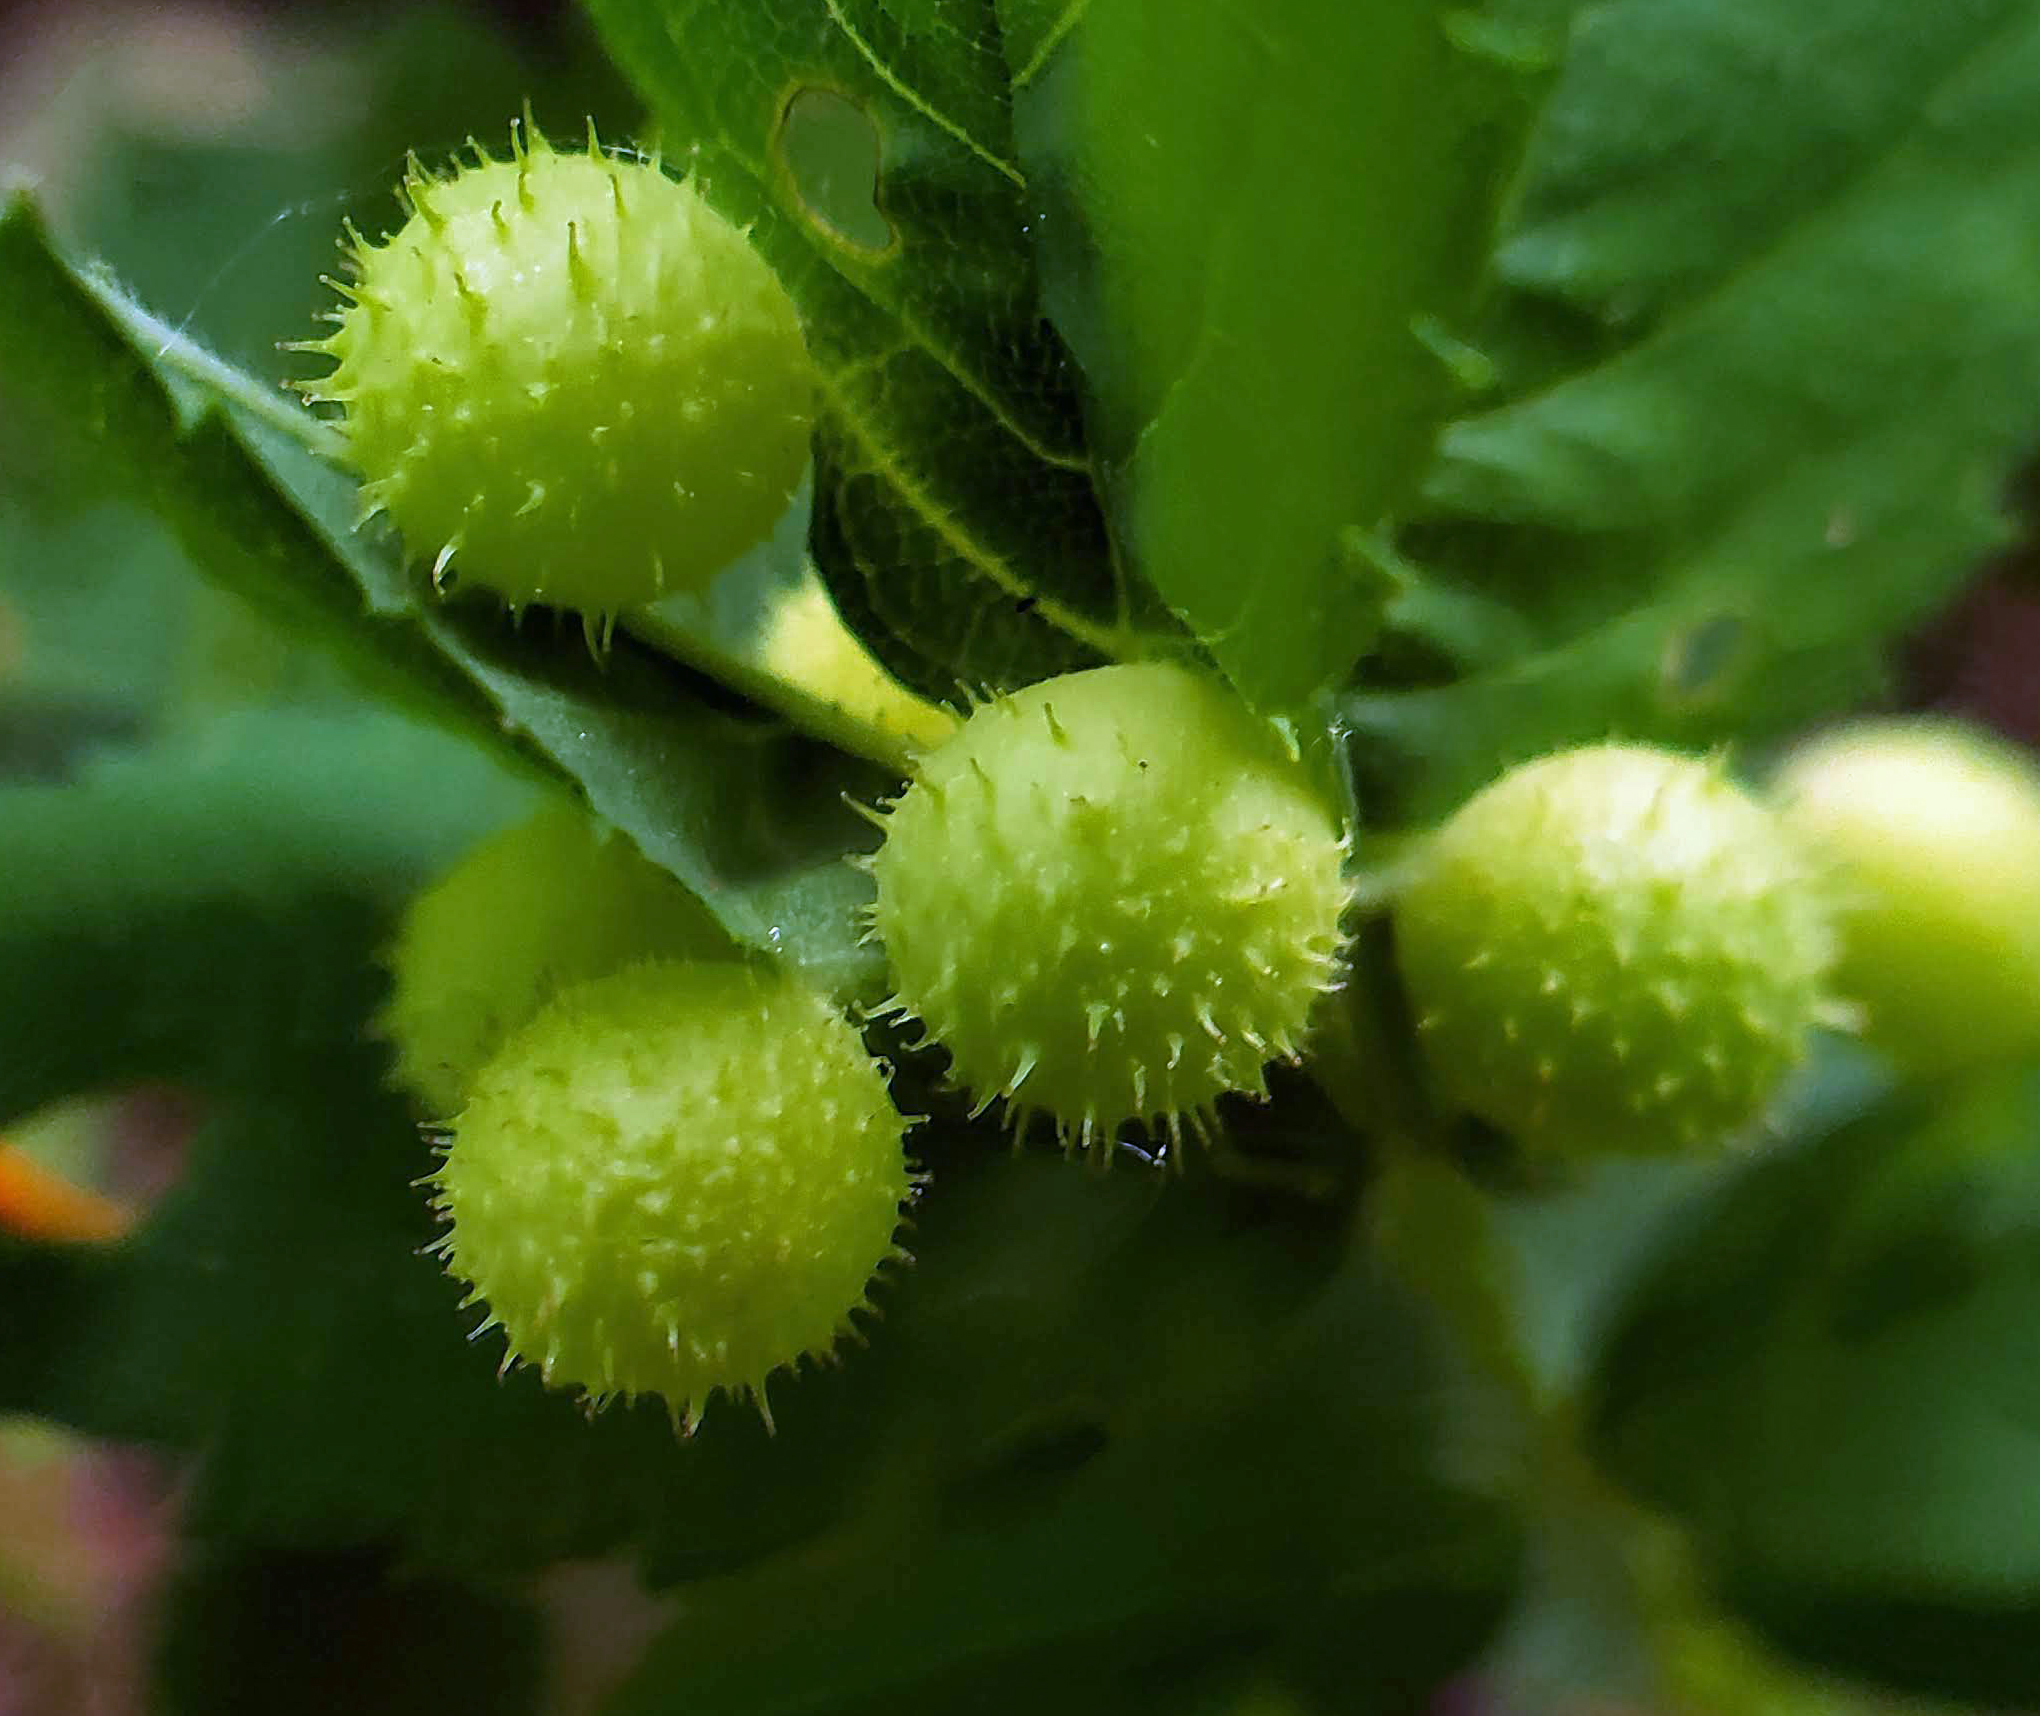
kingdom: Animalia
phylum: Arthropoda
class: Insecta
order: Hymenoptera
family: Cynipidae
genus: Diplolepis
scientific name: Diplolepis polita
